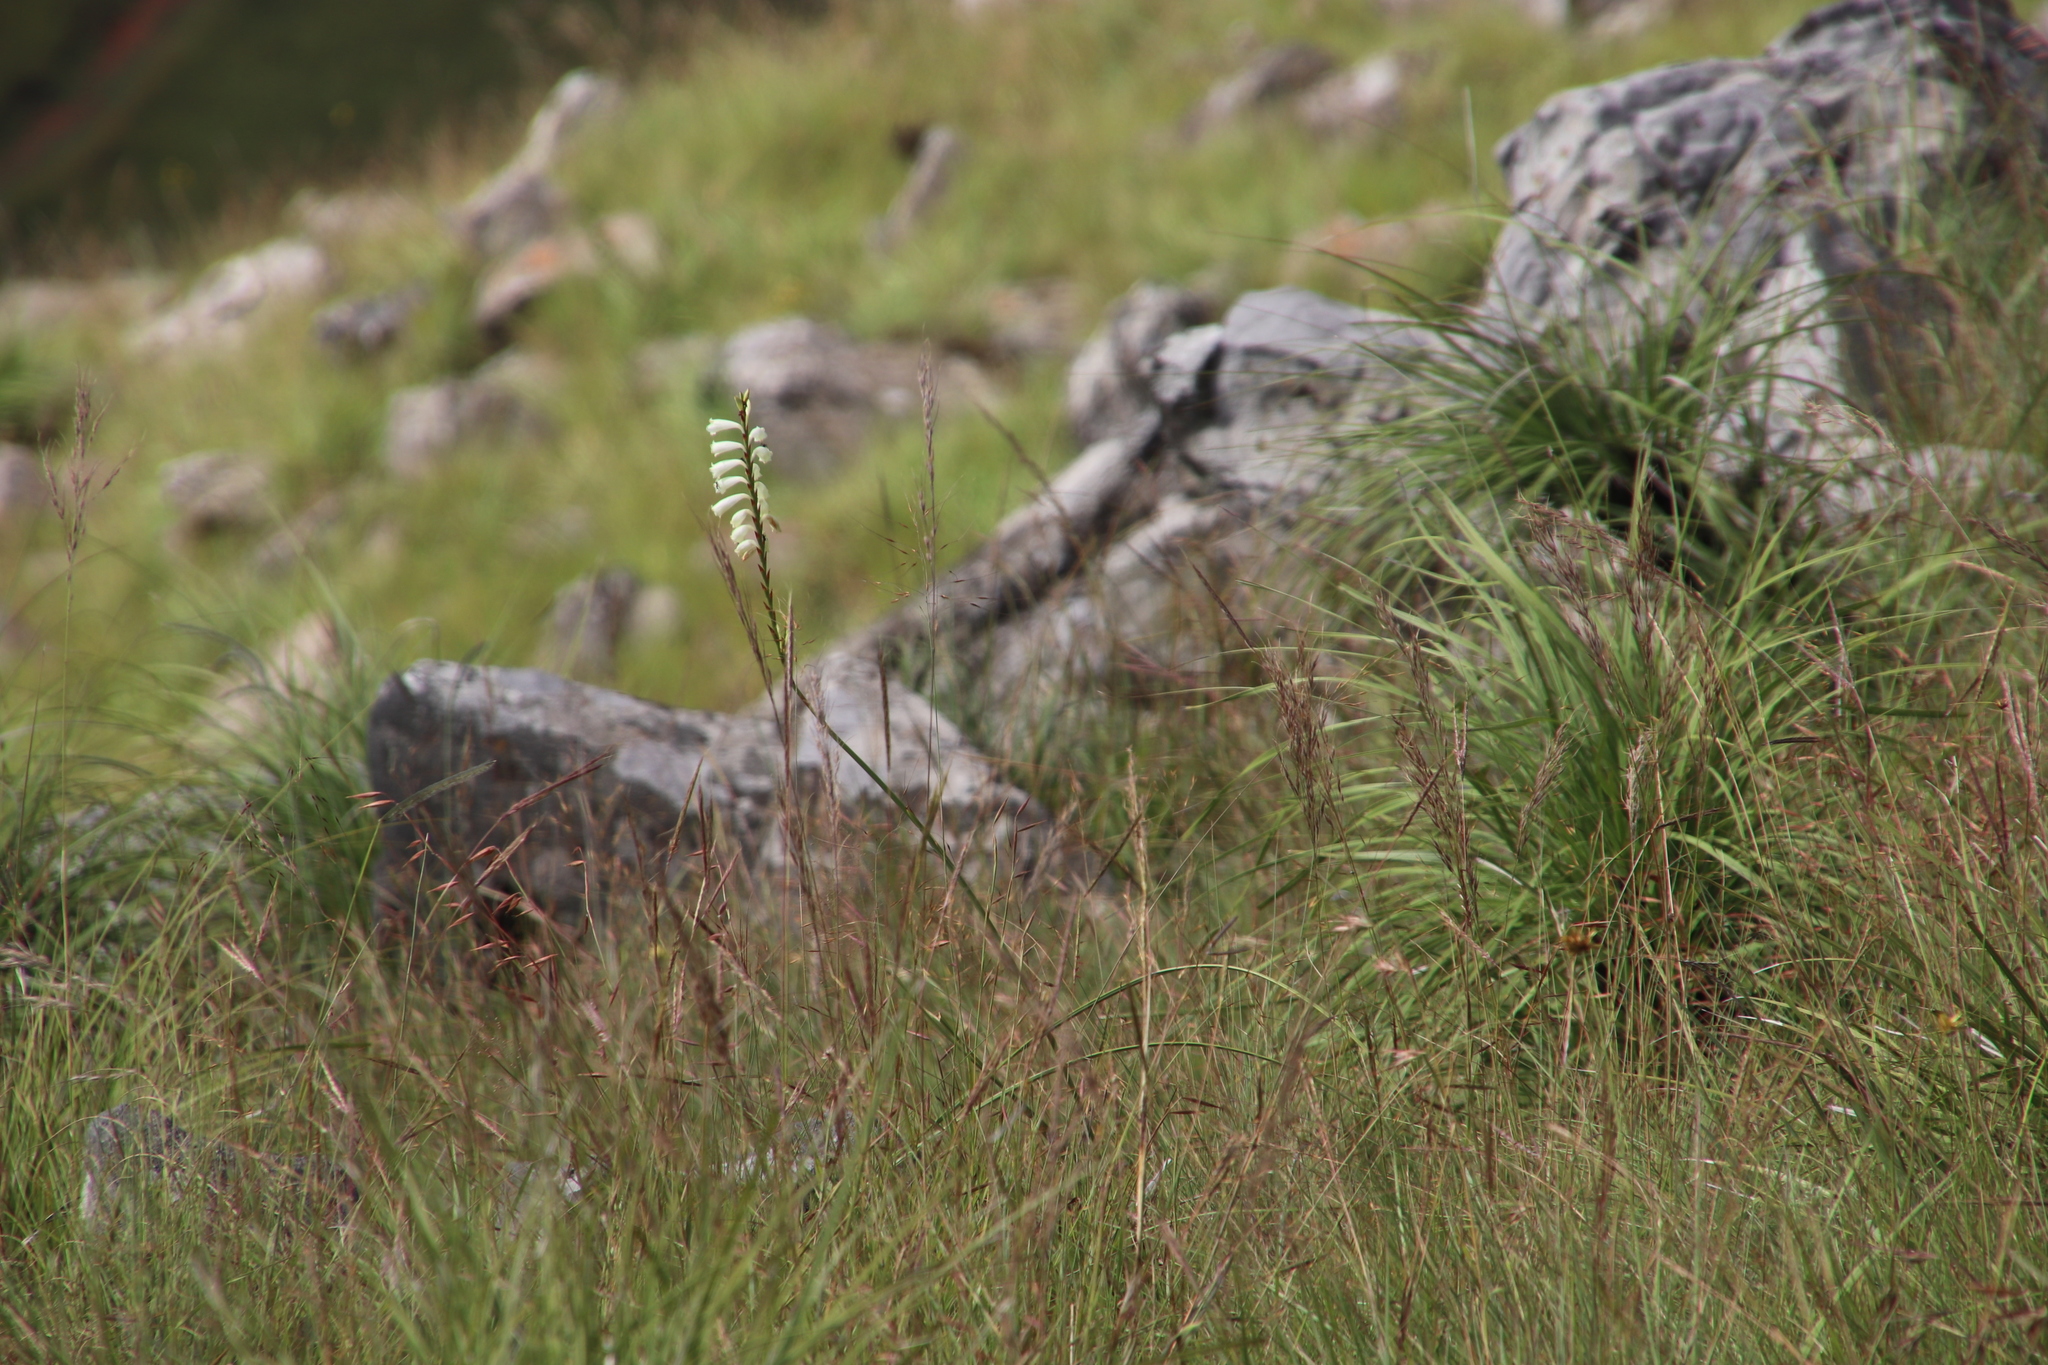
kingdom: Plantae
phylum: Tracheophyta
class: Liliopsida
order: Asparagales
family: Iridaceae
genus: Watsonia
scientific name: Watsonia watsonioides
